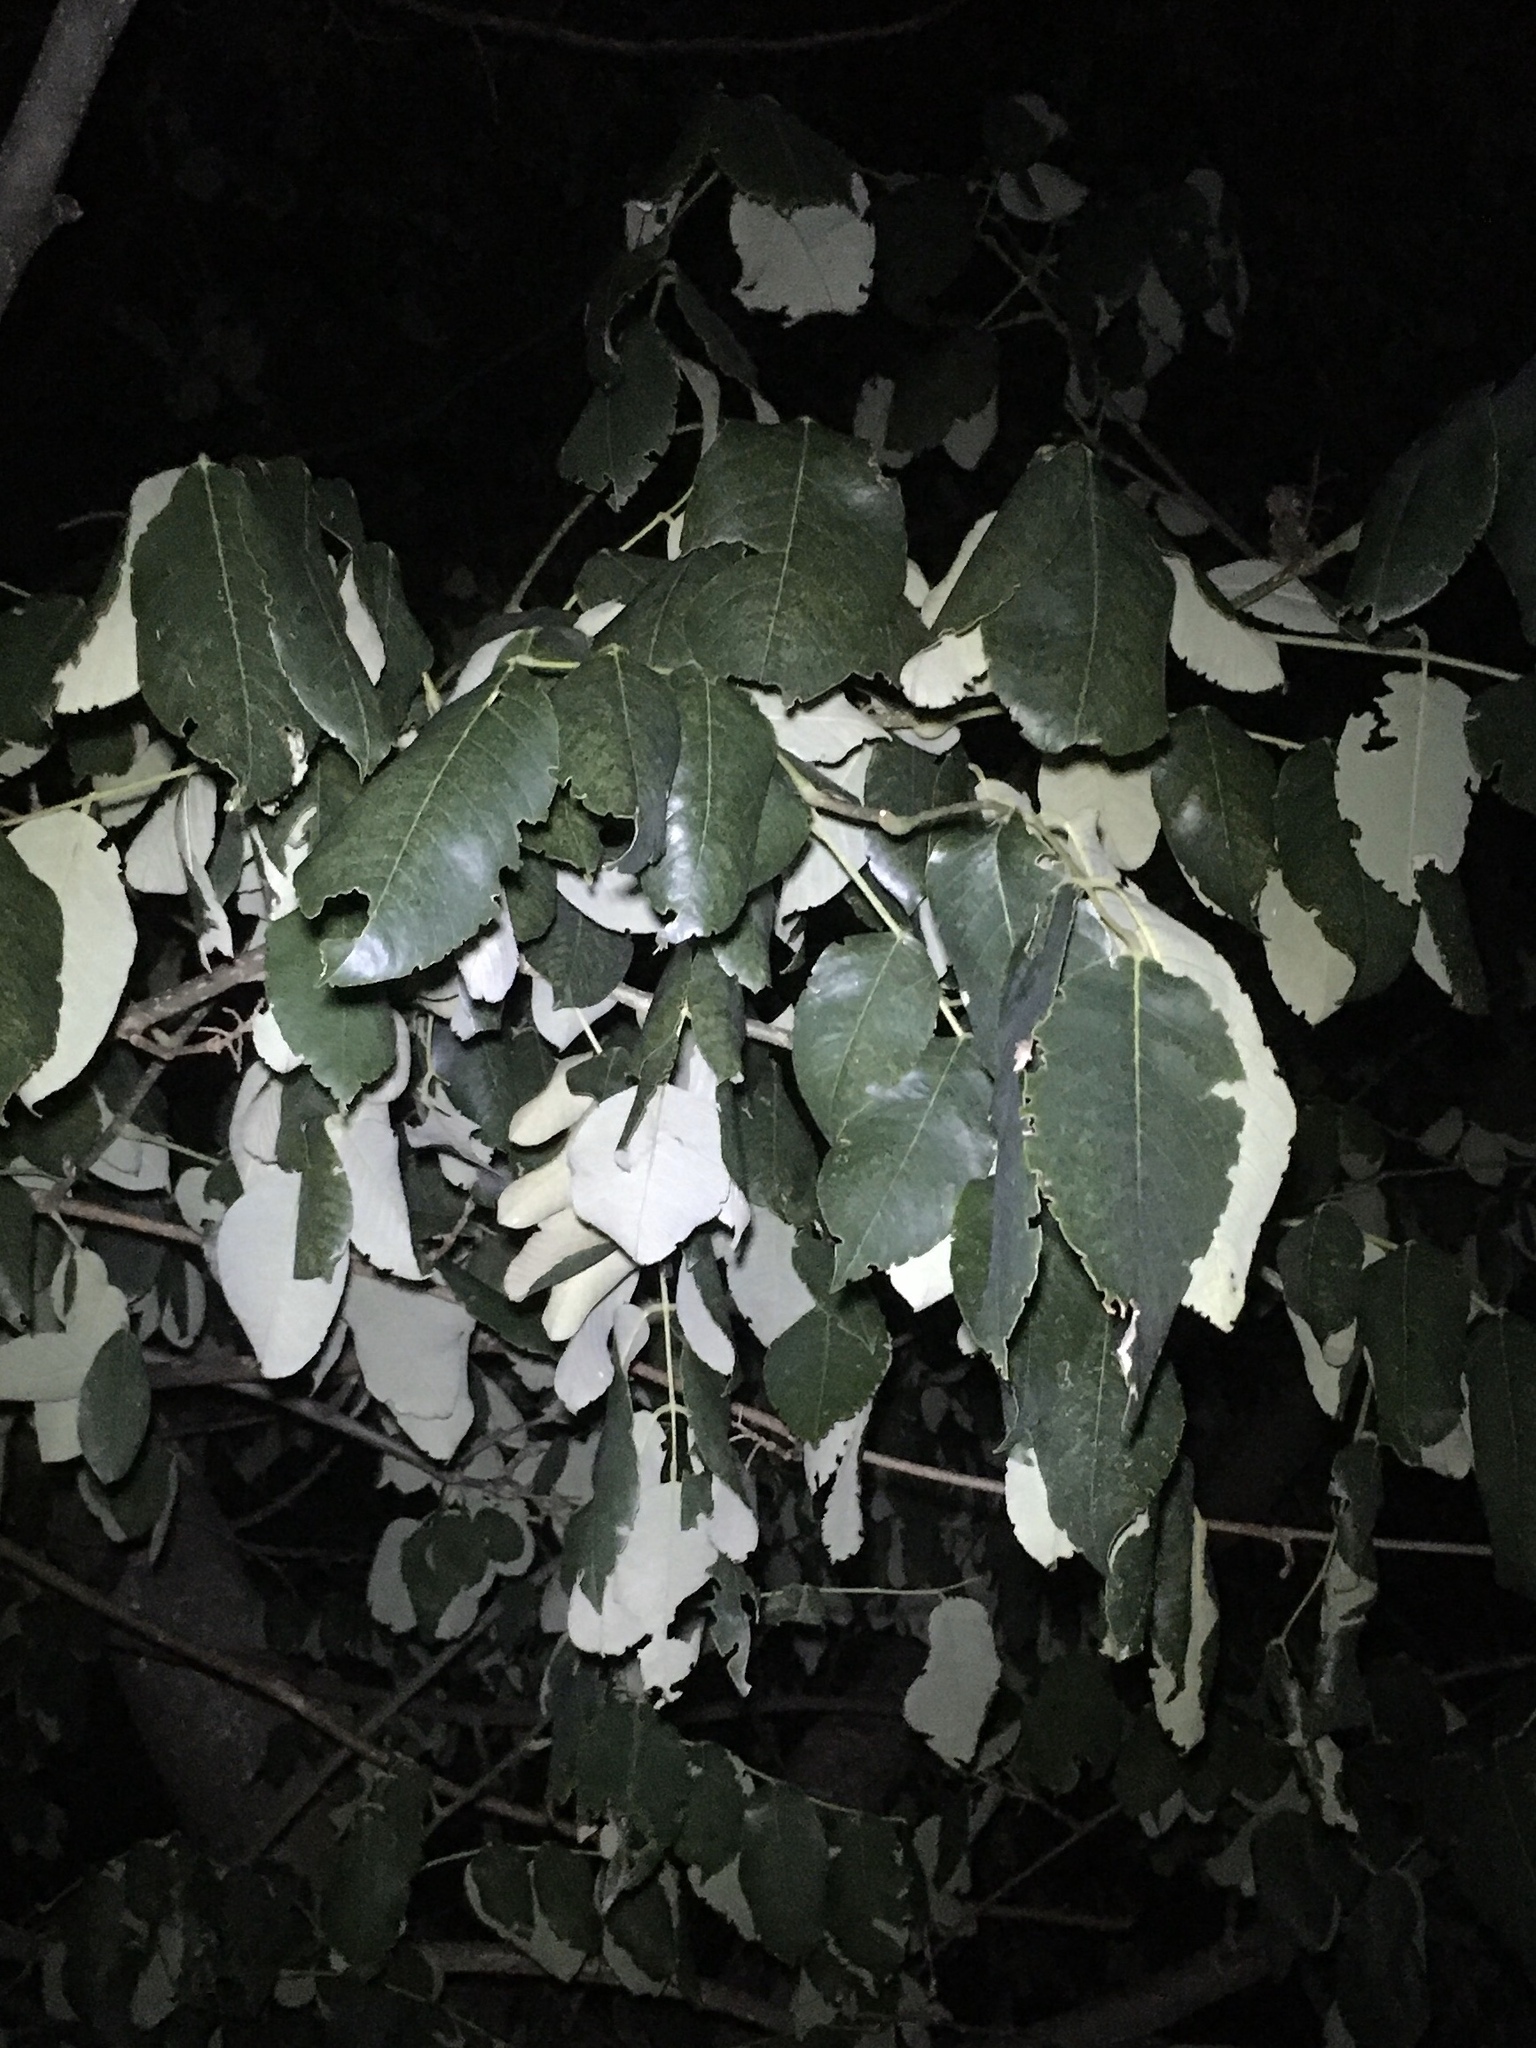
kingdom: Plantae
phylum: Tracheophyta
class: Magnoliopsida
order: Fabales
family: Fabaceae
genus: Piscidia
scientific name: Piscidia piscipula
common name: Florida fishpoison tree
